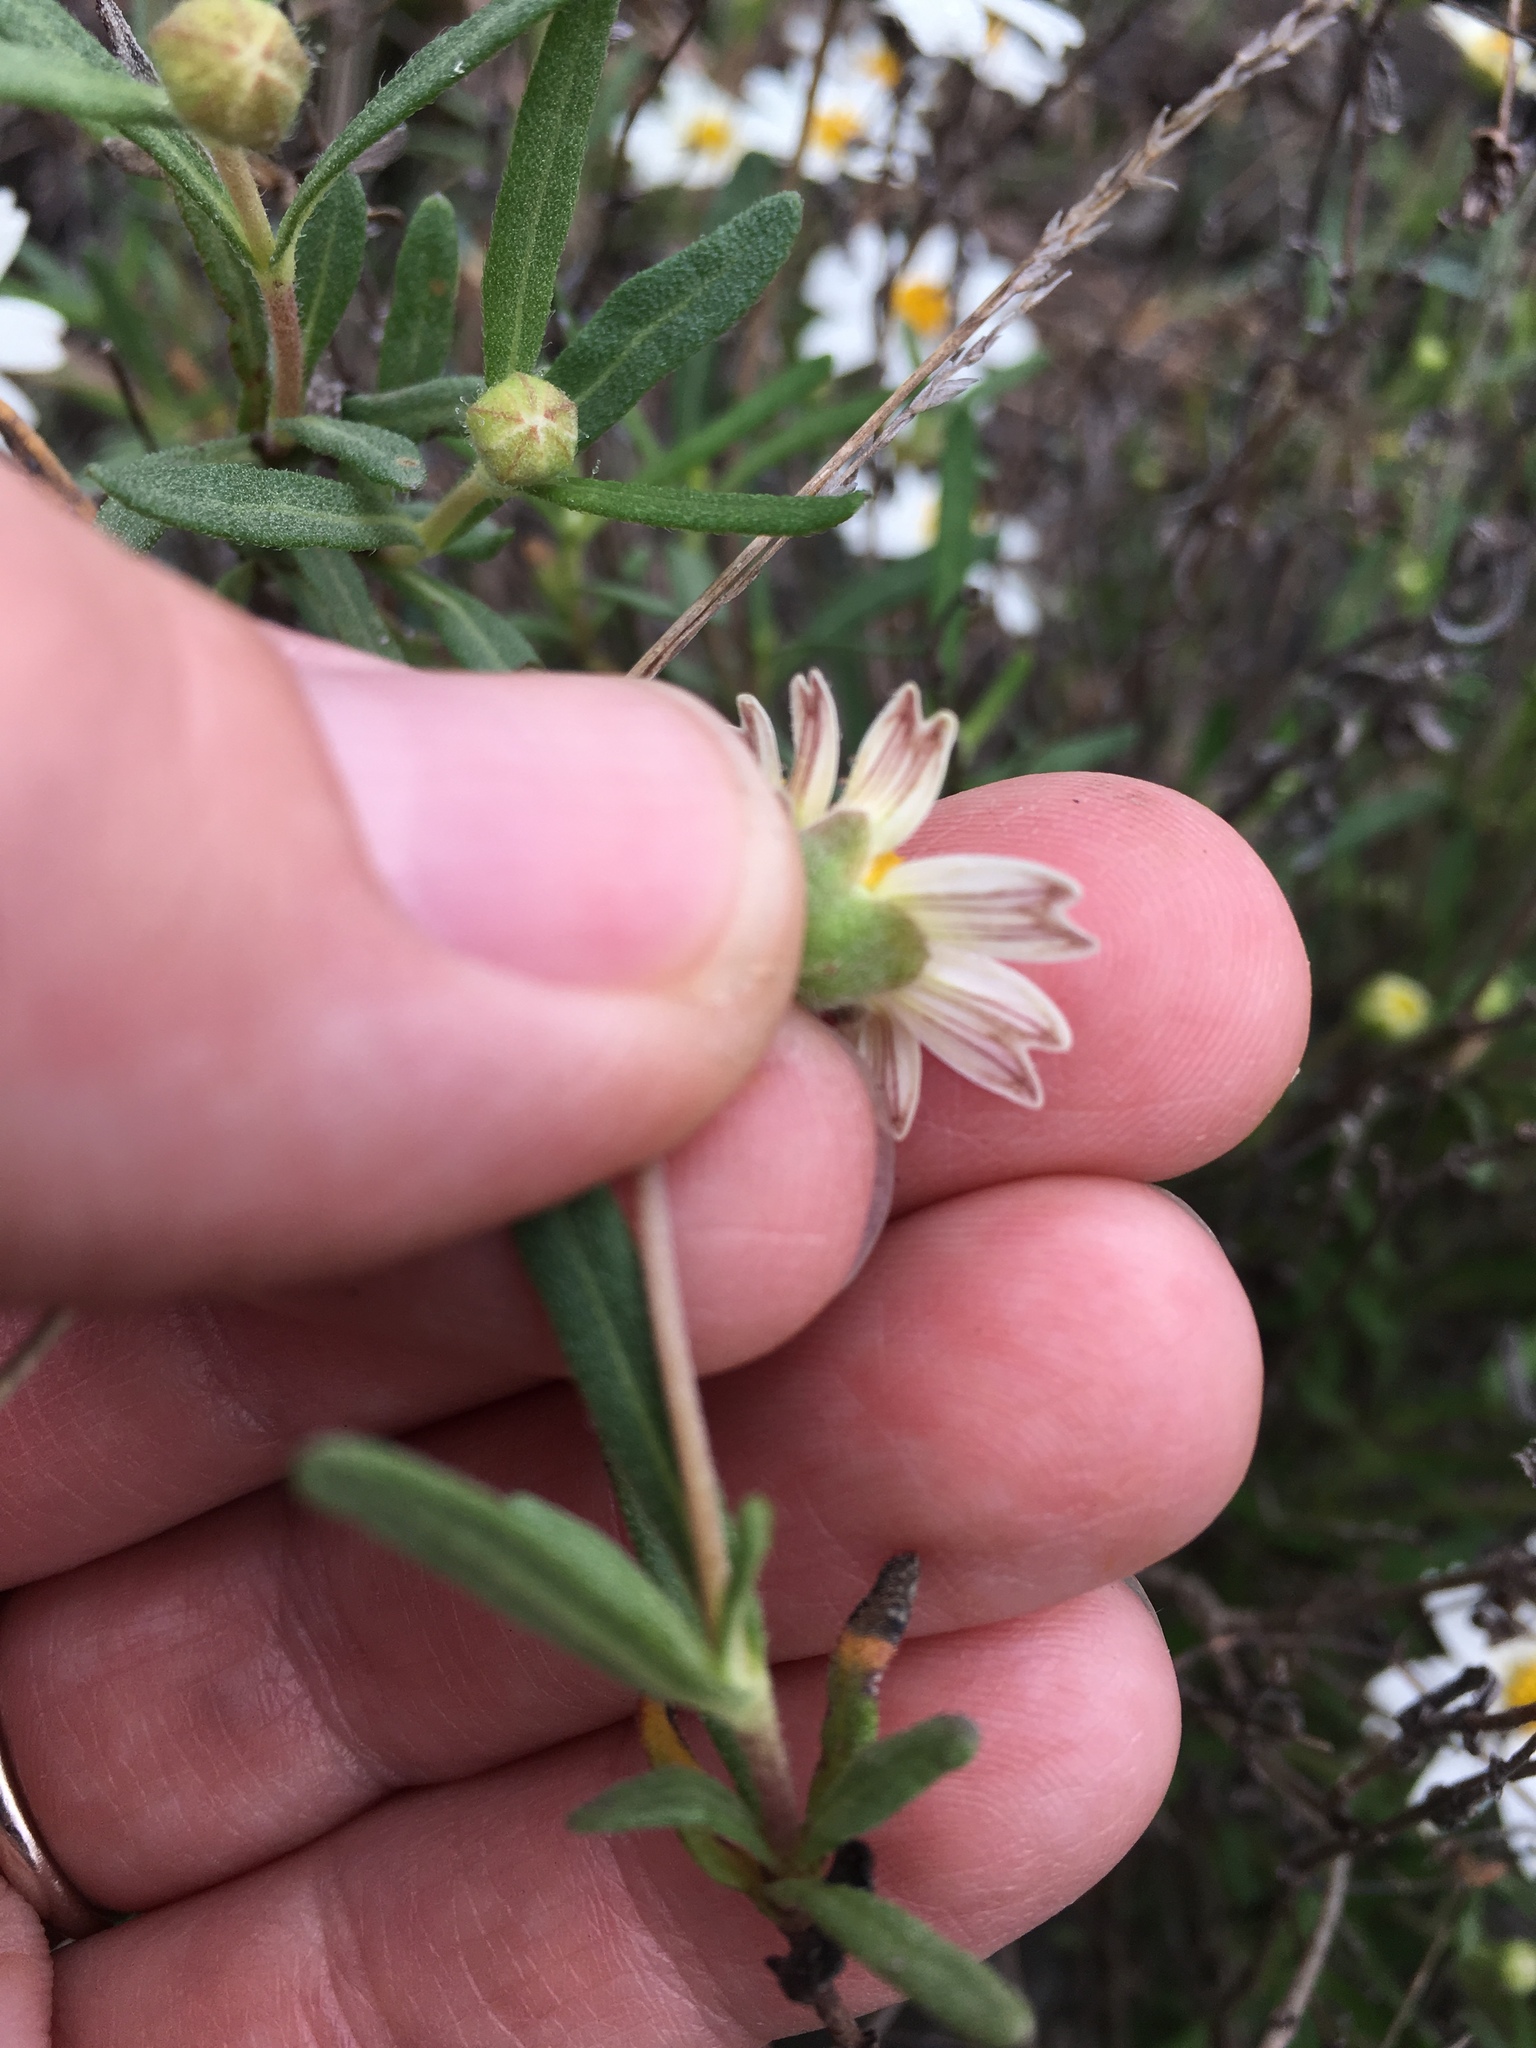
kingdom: Plantae
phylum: Tracheophyta
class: Magnoliopsida
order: Asterales
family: Asteraceae
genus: Melampodium
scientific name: Melampodium leucanthum
